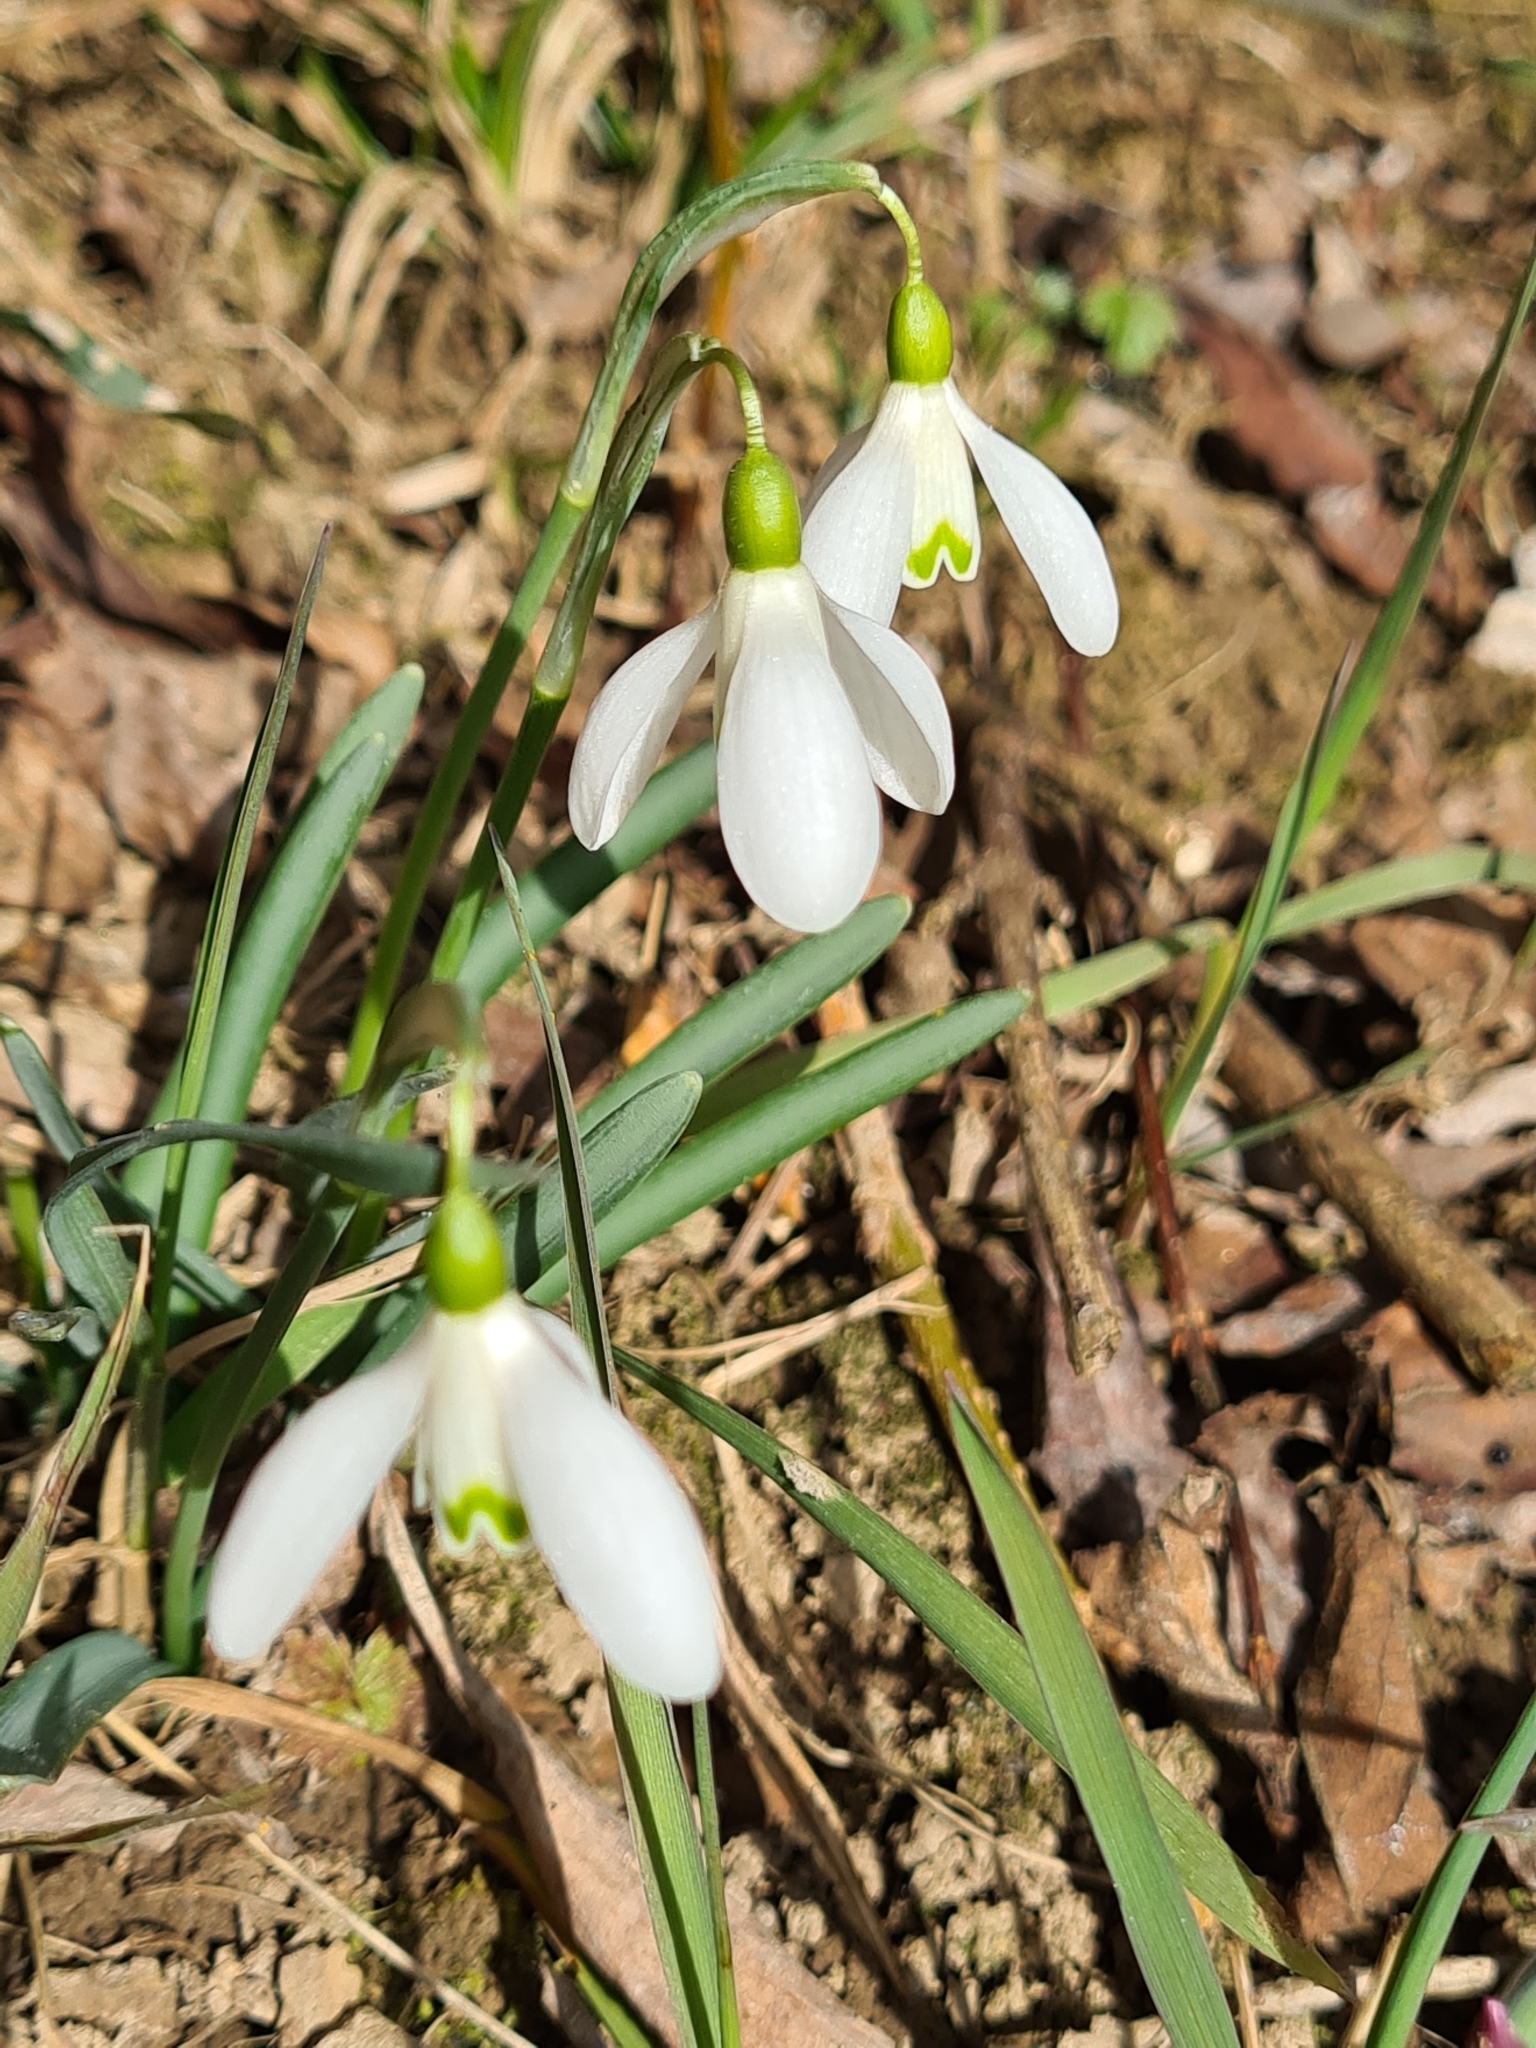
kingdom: Plantae
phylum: Tracheophyta
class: Liliopsida
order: Asparagales
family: Amaryllidaceae
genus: Galanthus
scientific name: Galanthus nivalis
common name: Snowdrop
